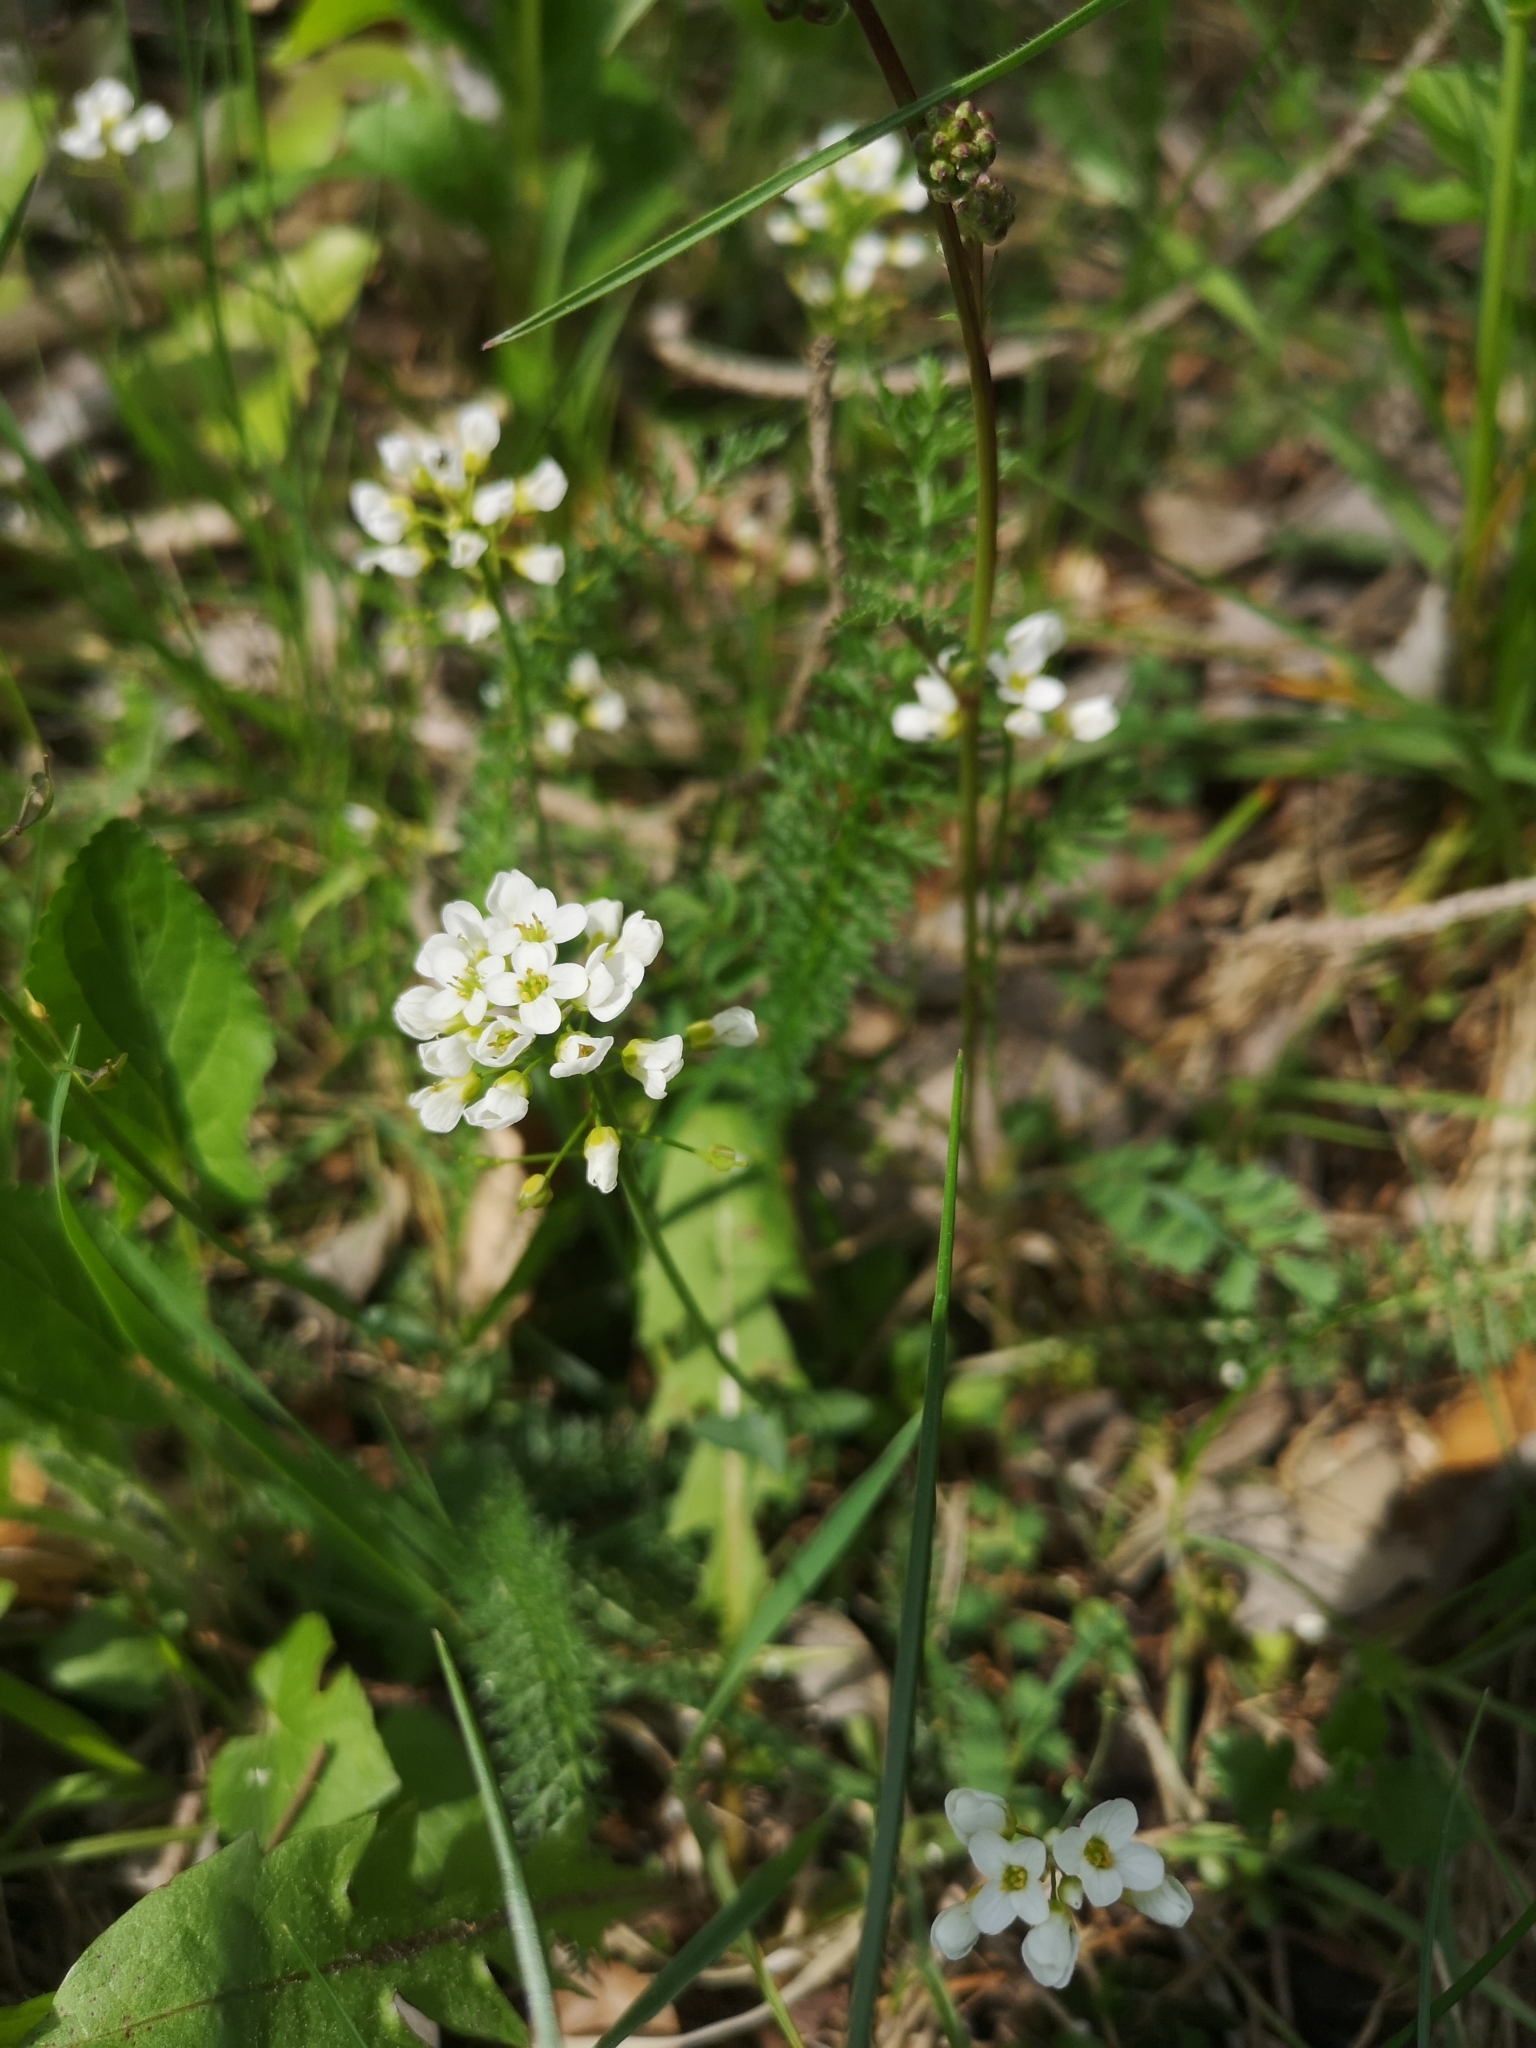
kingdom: Plantae
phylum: Tracheophyta
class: Magnoliopsida
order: Brassicales
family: Brassicaceae
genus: Noccaea
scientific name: Noccaea perfoliata
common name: Perfoliate pennycress
